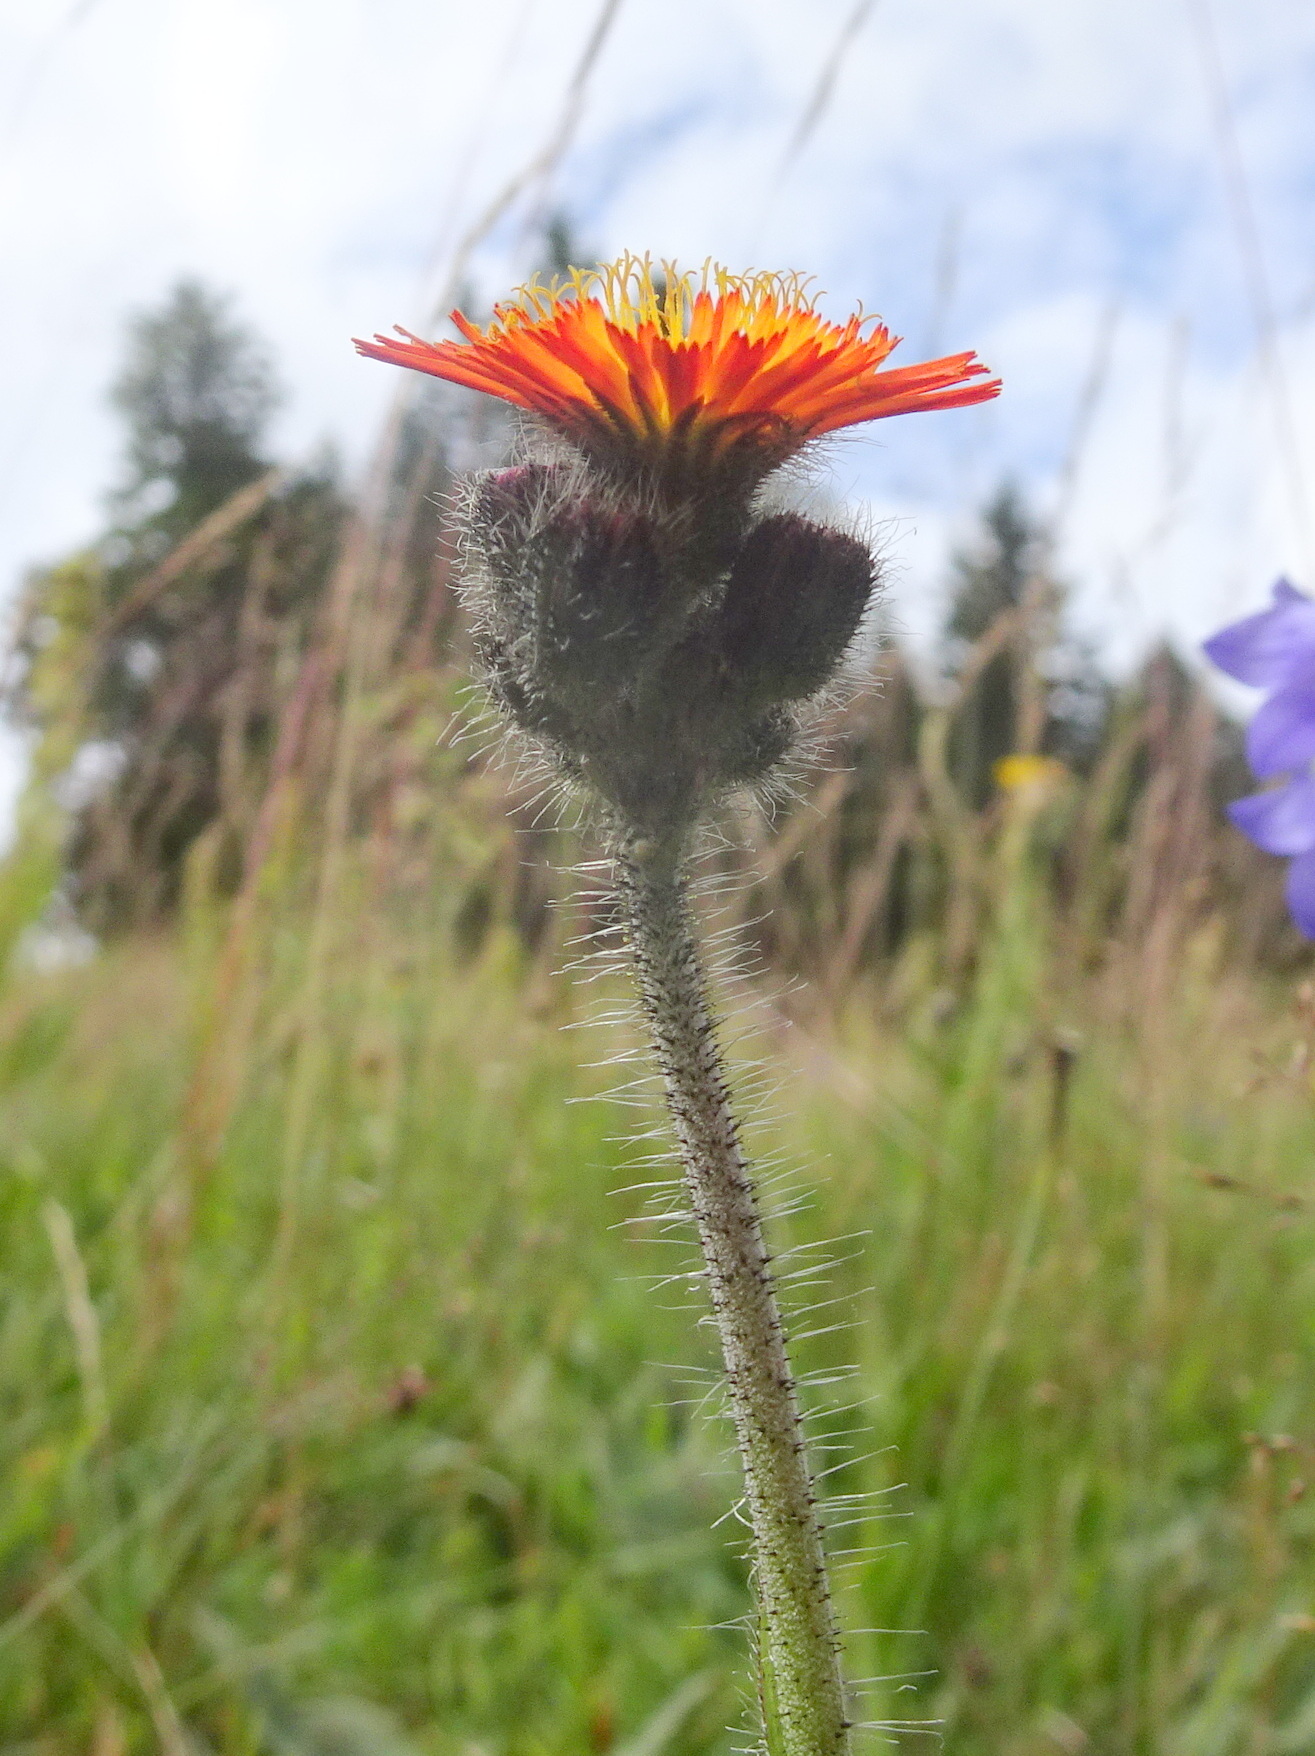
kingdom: Plantae
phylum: Tracheophyta
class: Magnoliopsida
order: Asterales
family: Asteraceae
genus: Pilosella
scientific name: Pilosella aurantiaca
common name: Fox-and-cubs
